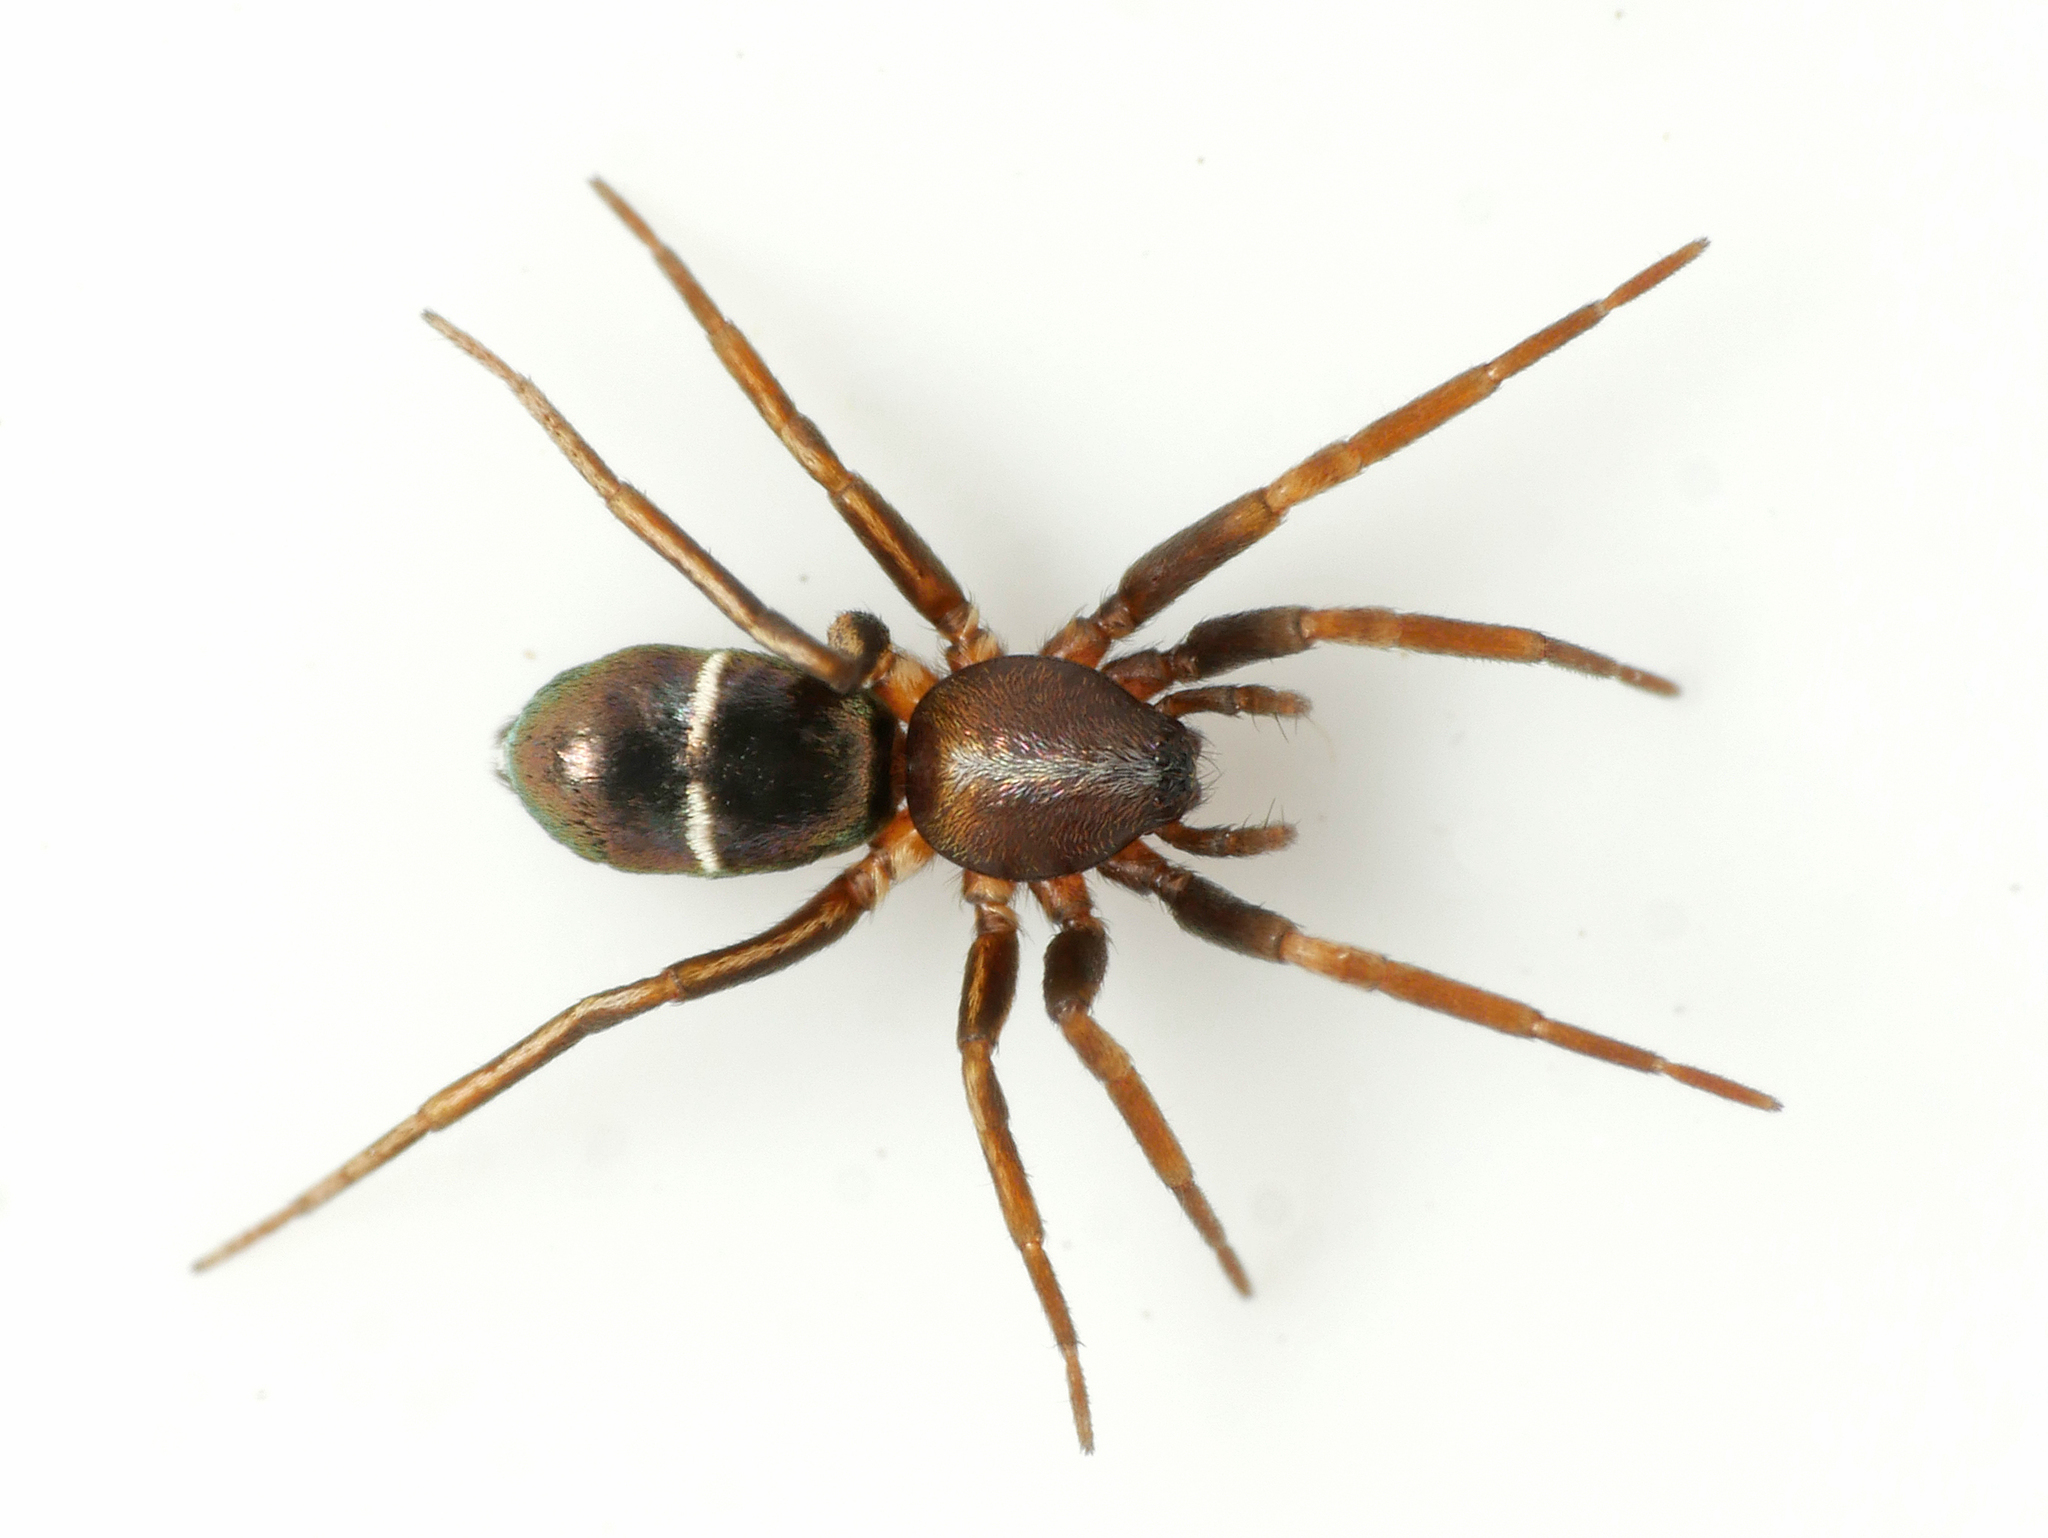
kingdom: Animalia
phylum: Arthropoda
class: Arachnida
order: Araneae
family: Gnaphosidae
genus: Micaria
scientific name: Micaria subopaca
